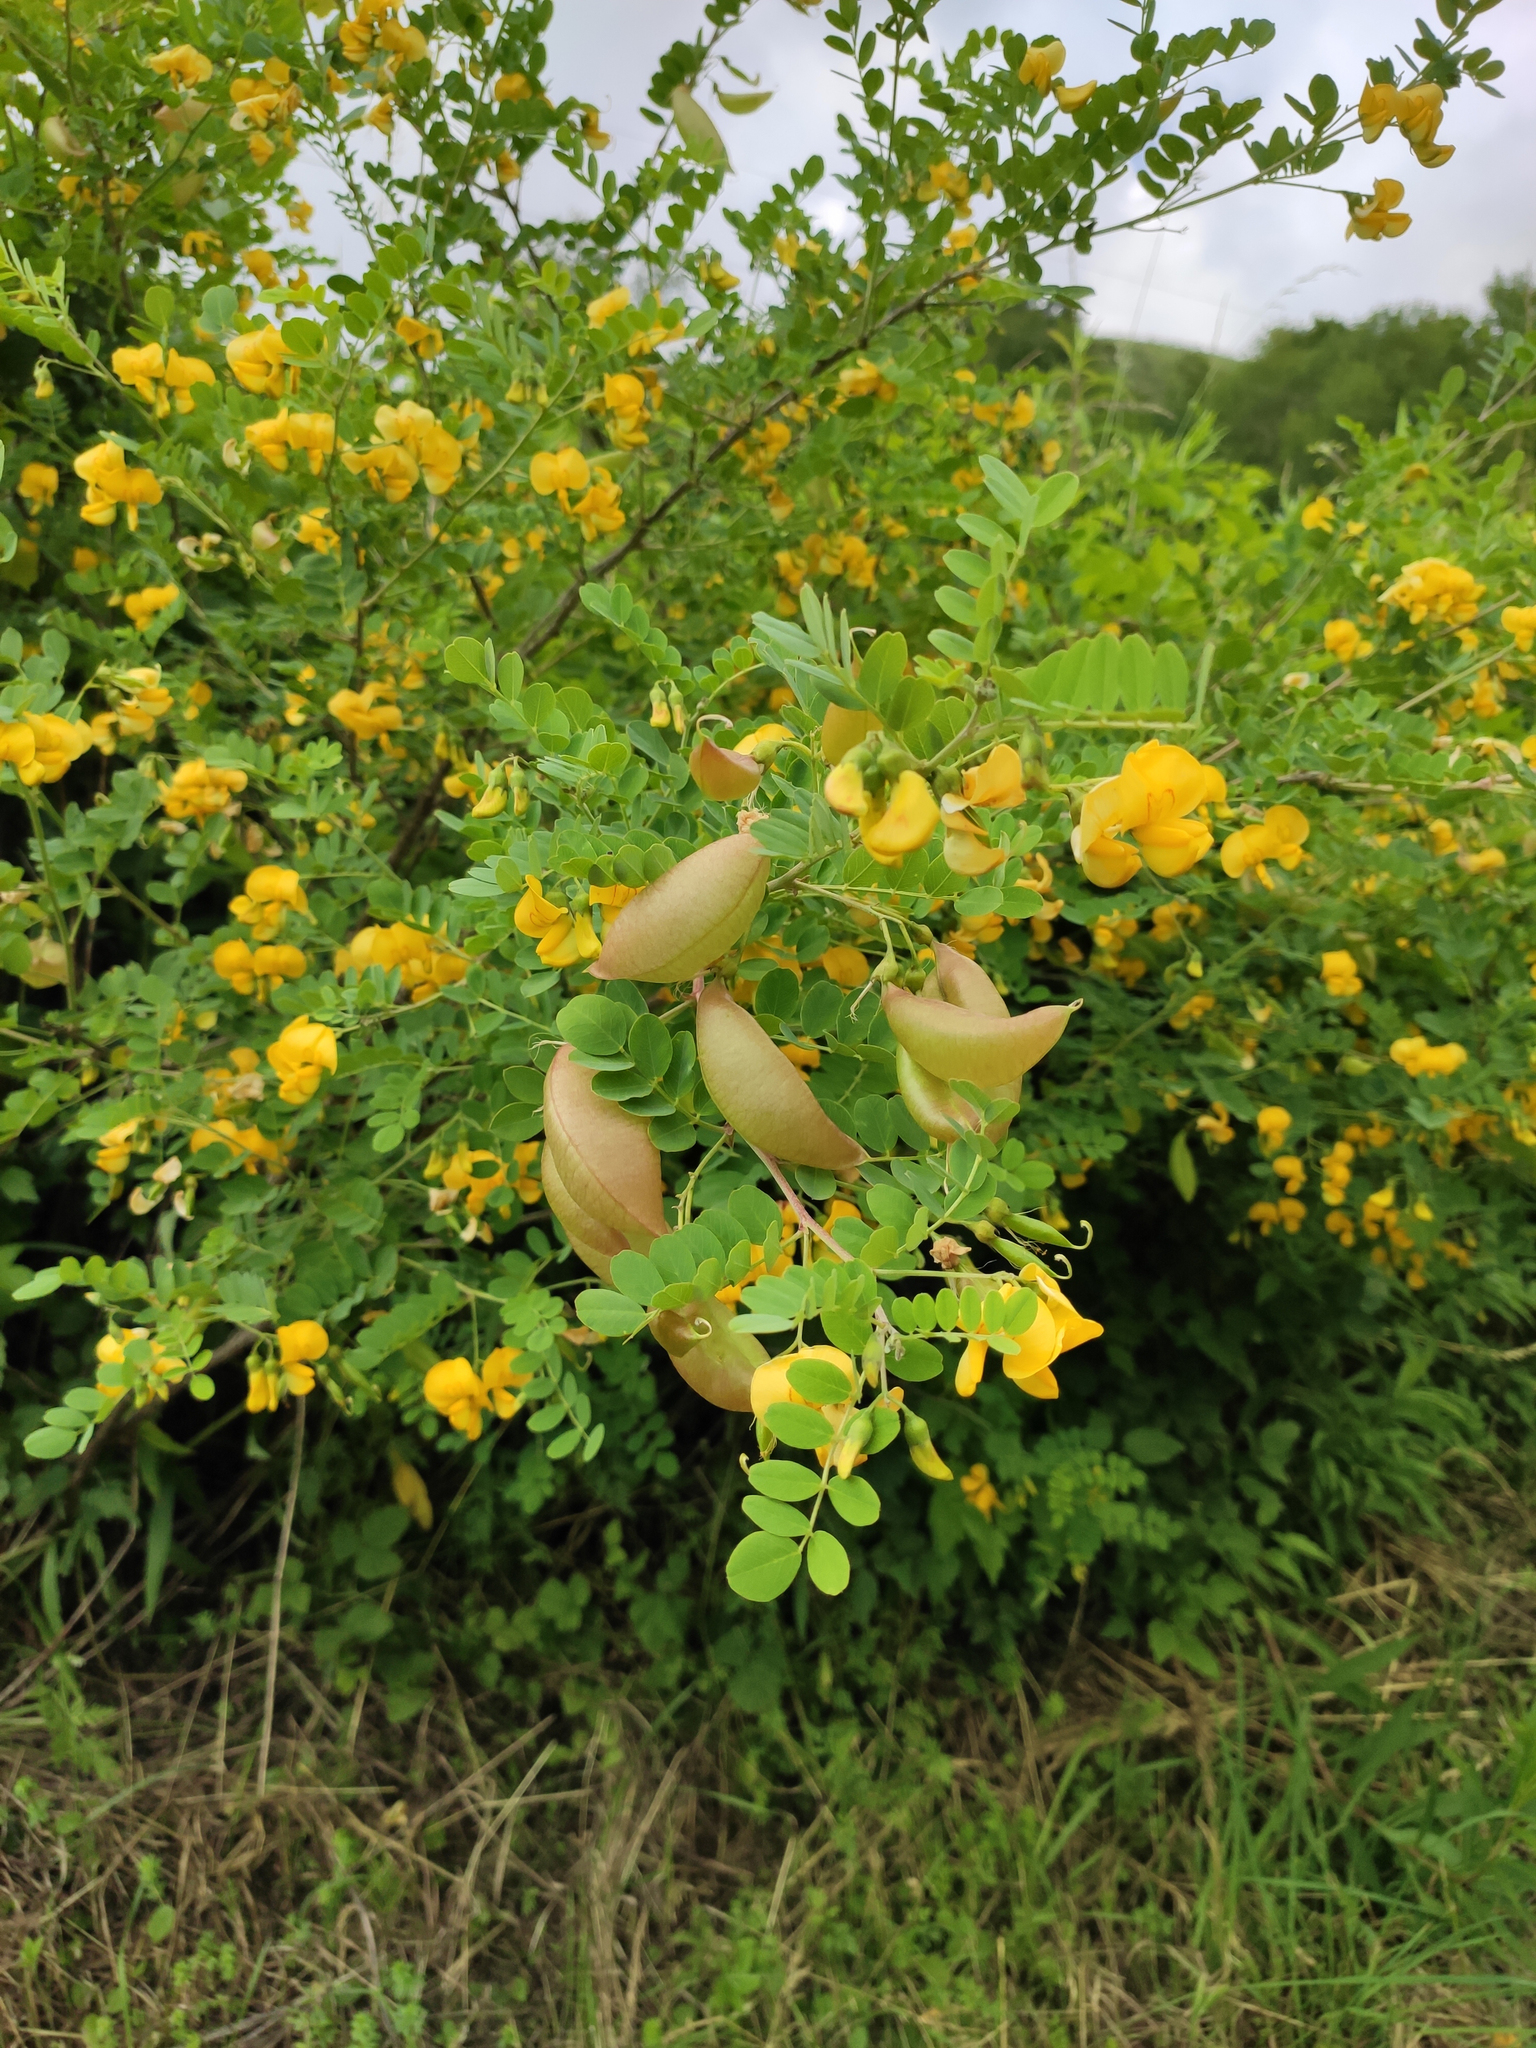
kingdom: Plantae
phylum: Tracheophyta
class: Magnoliopsida
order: Fabales
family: Fabaceae
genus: Colutea
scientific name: Colutea arborescens
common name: Bladder-senna
